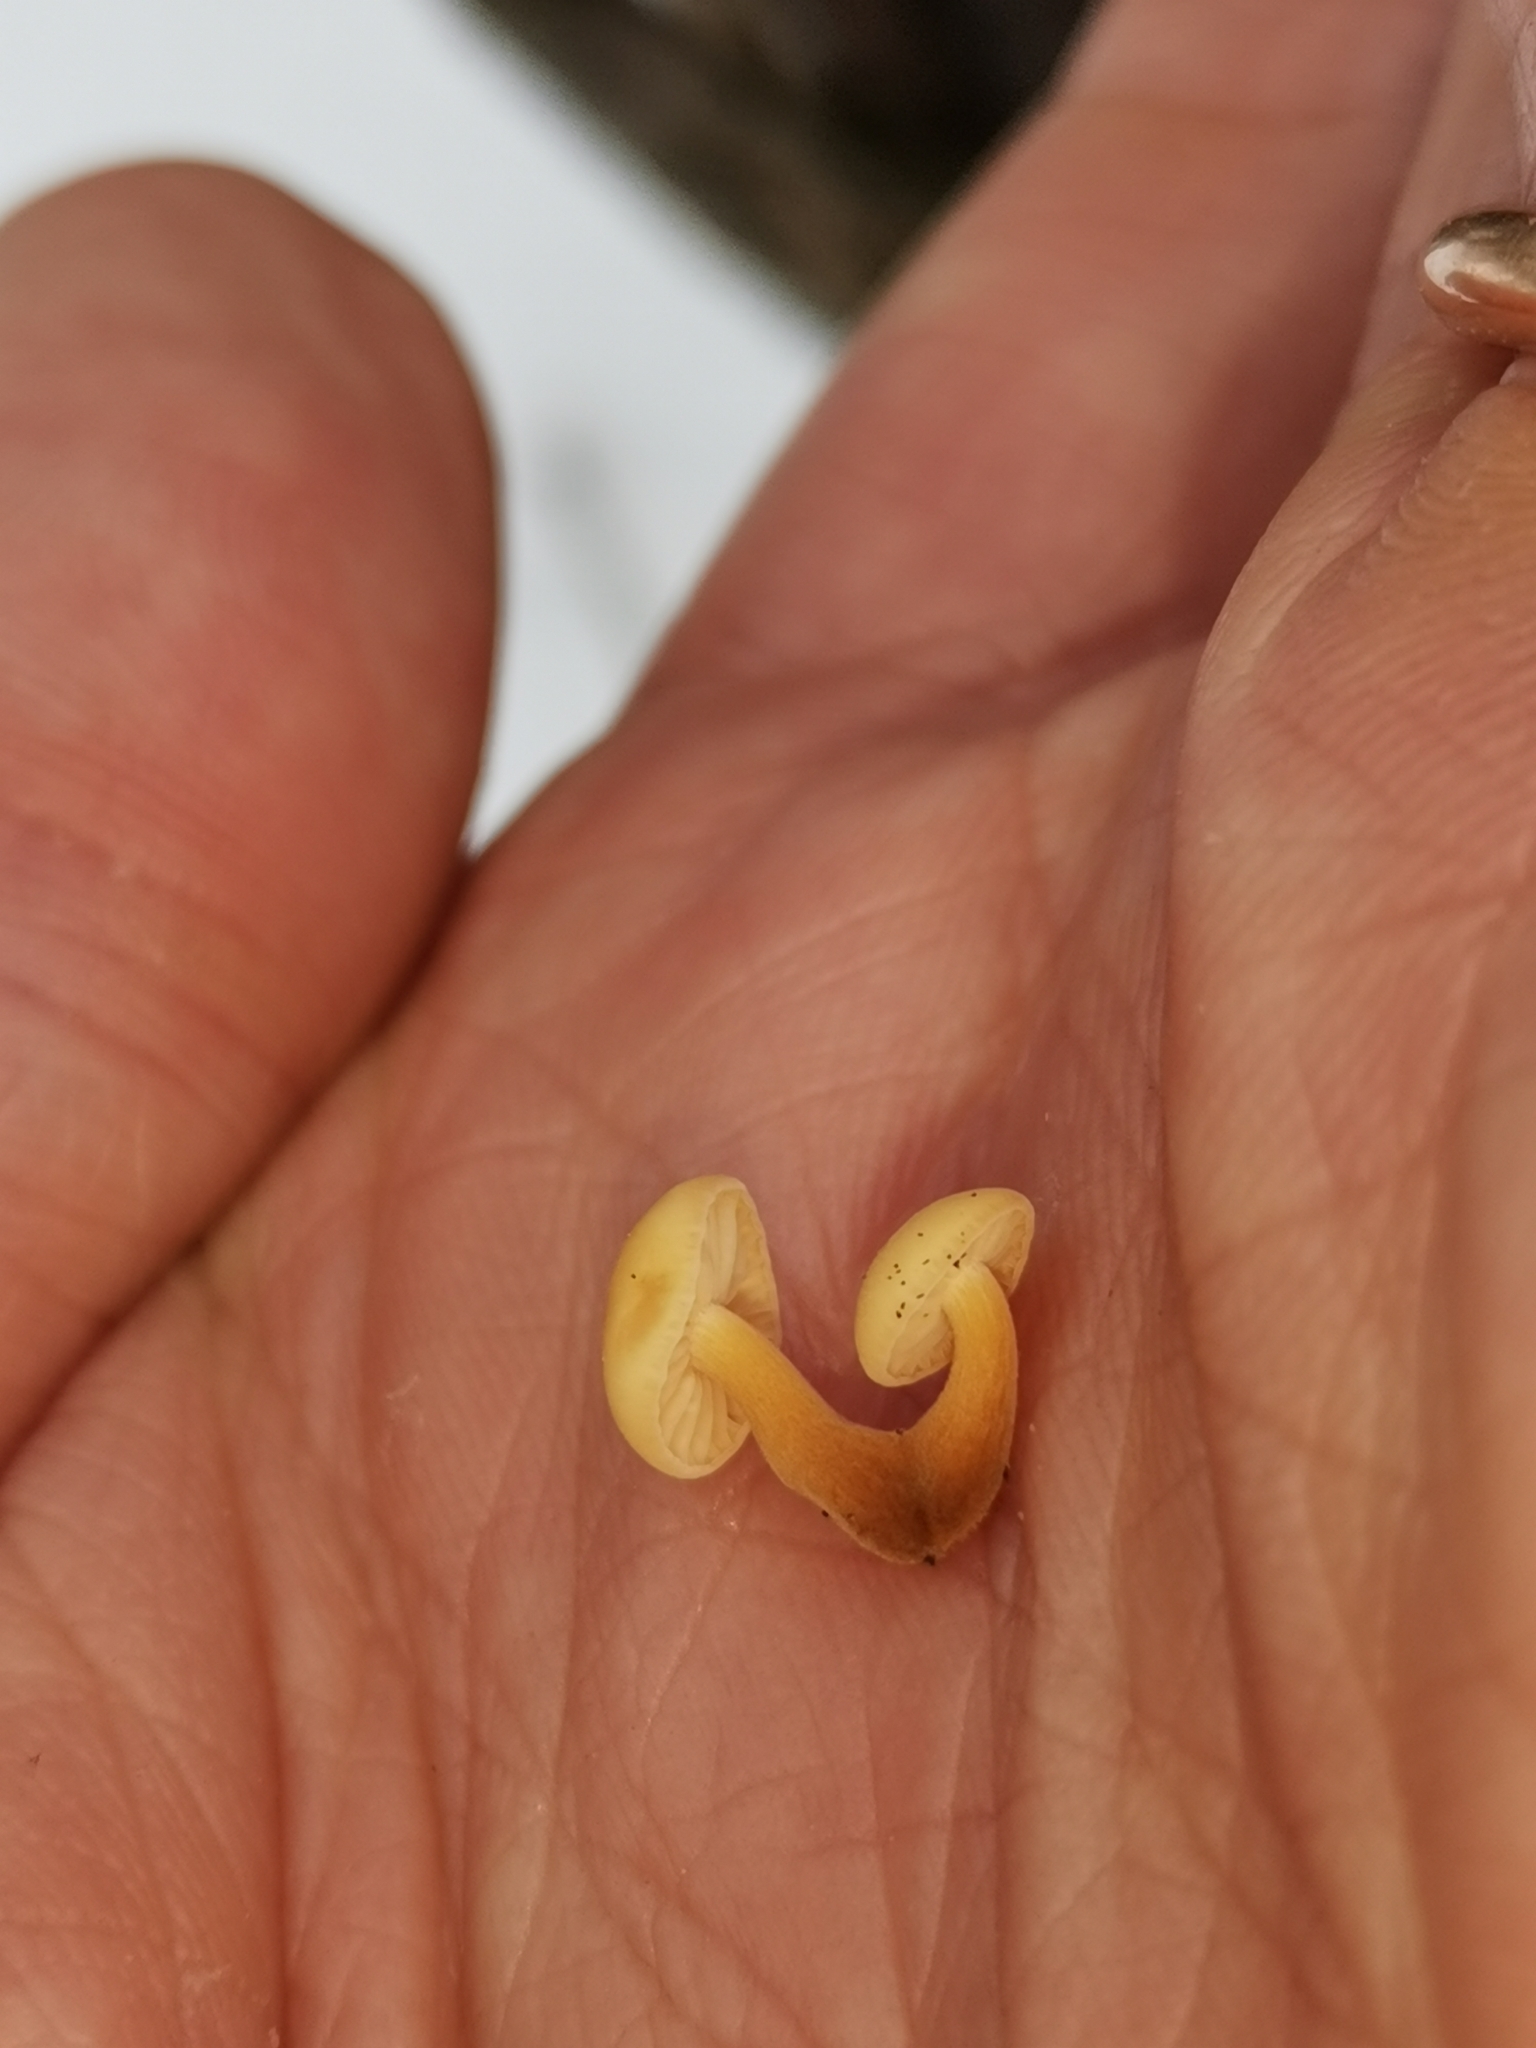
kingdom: Fungi
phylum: Basidiomycota
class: Agaricomycetes
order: Agaricales
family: Physalacriaceae
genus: Flammulina
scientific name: Flammulina
